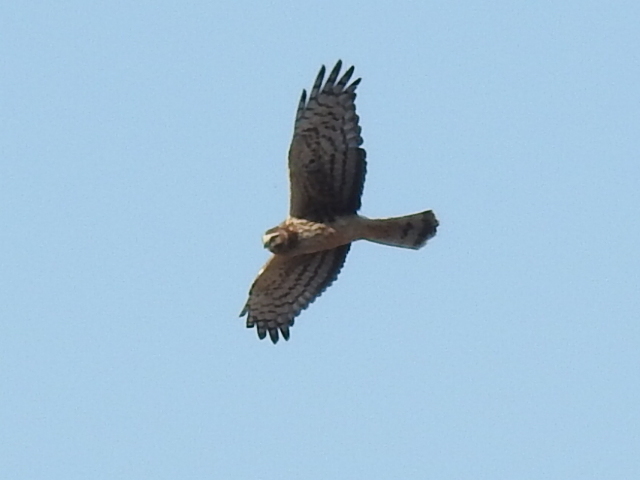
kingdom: Animalia
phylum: Chordata
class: Aves
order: Accipitriformes
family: Accipitridae
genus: Circus
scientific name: Circus cyaneus
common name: Hen harrier
